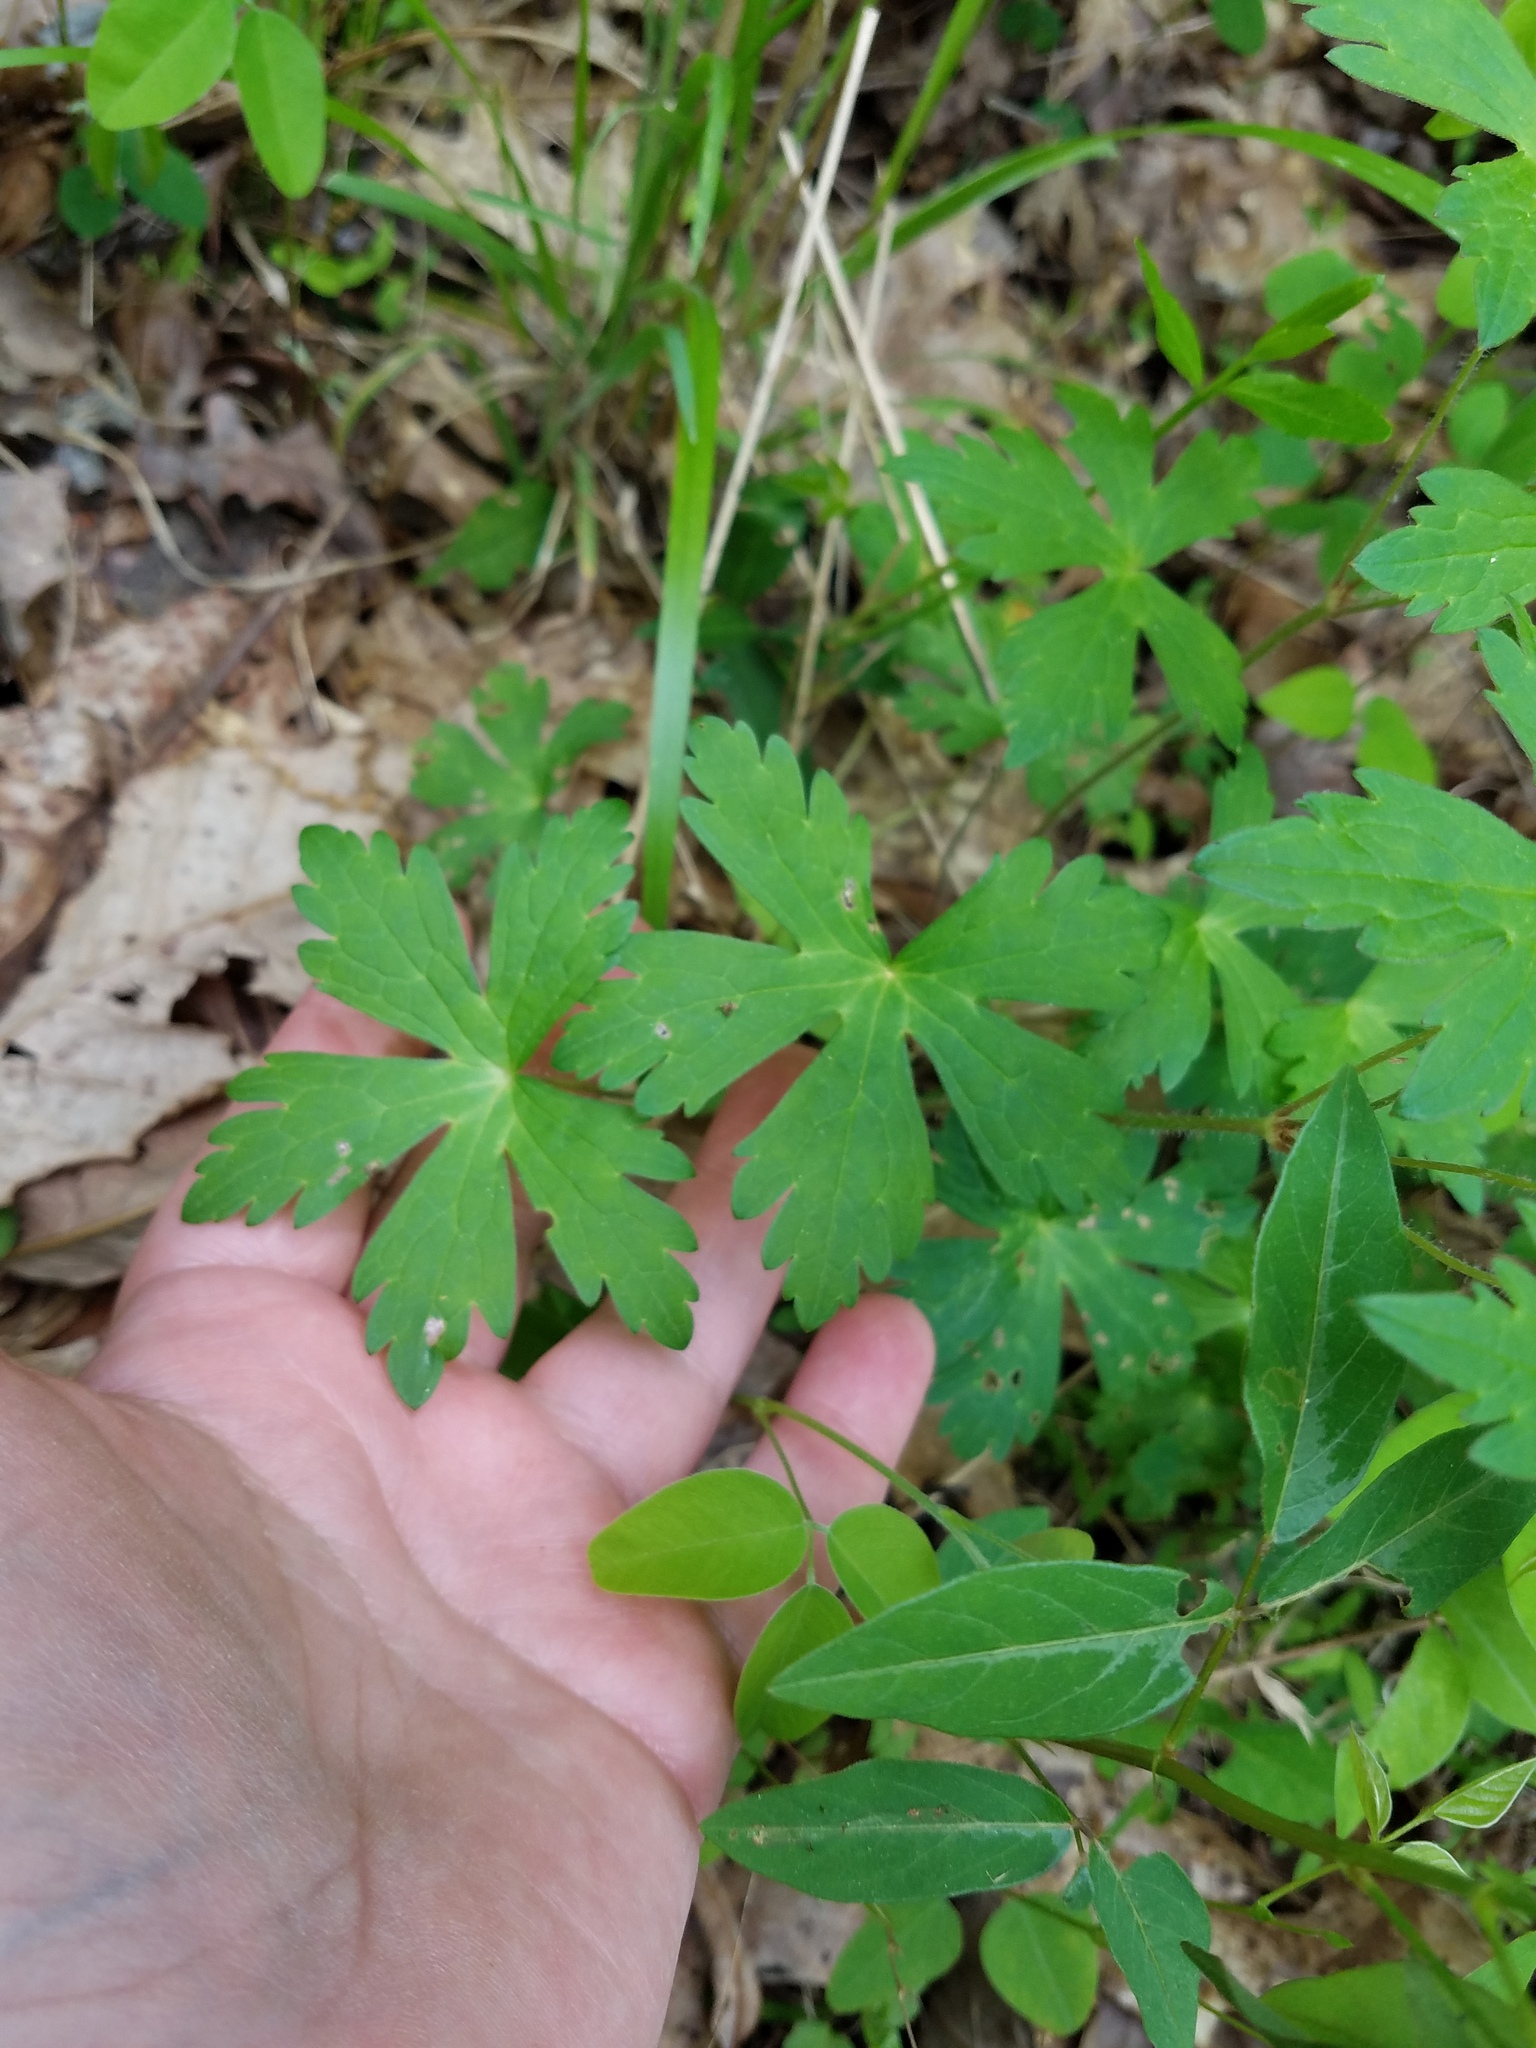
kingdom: Plantae
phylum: Tracheophyta
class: Magnoliopsida
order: Geraniales
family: Geraniaceae
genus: Geranium
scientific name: Geranium maculatum
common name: Spotted geranium
